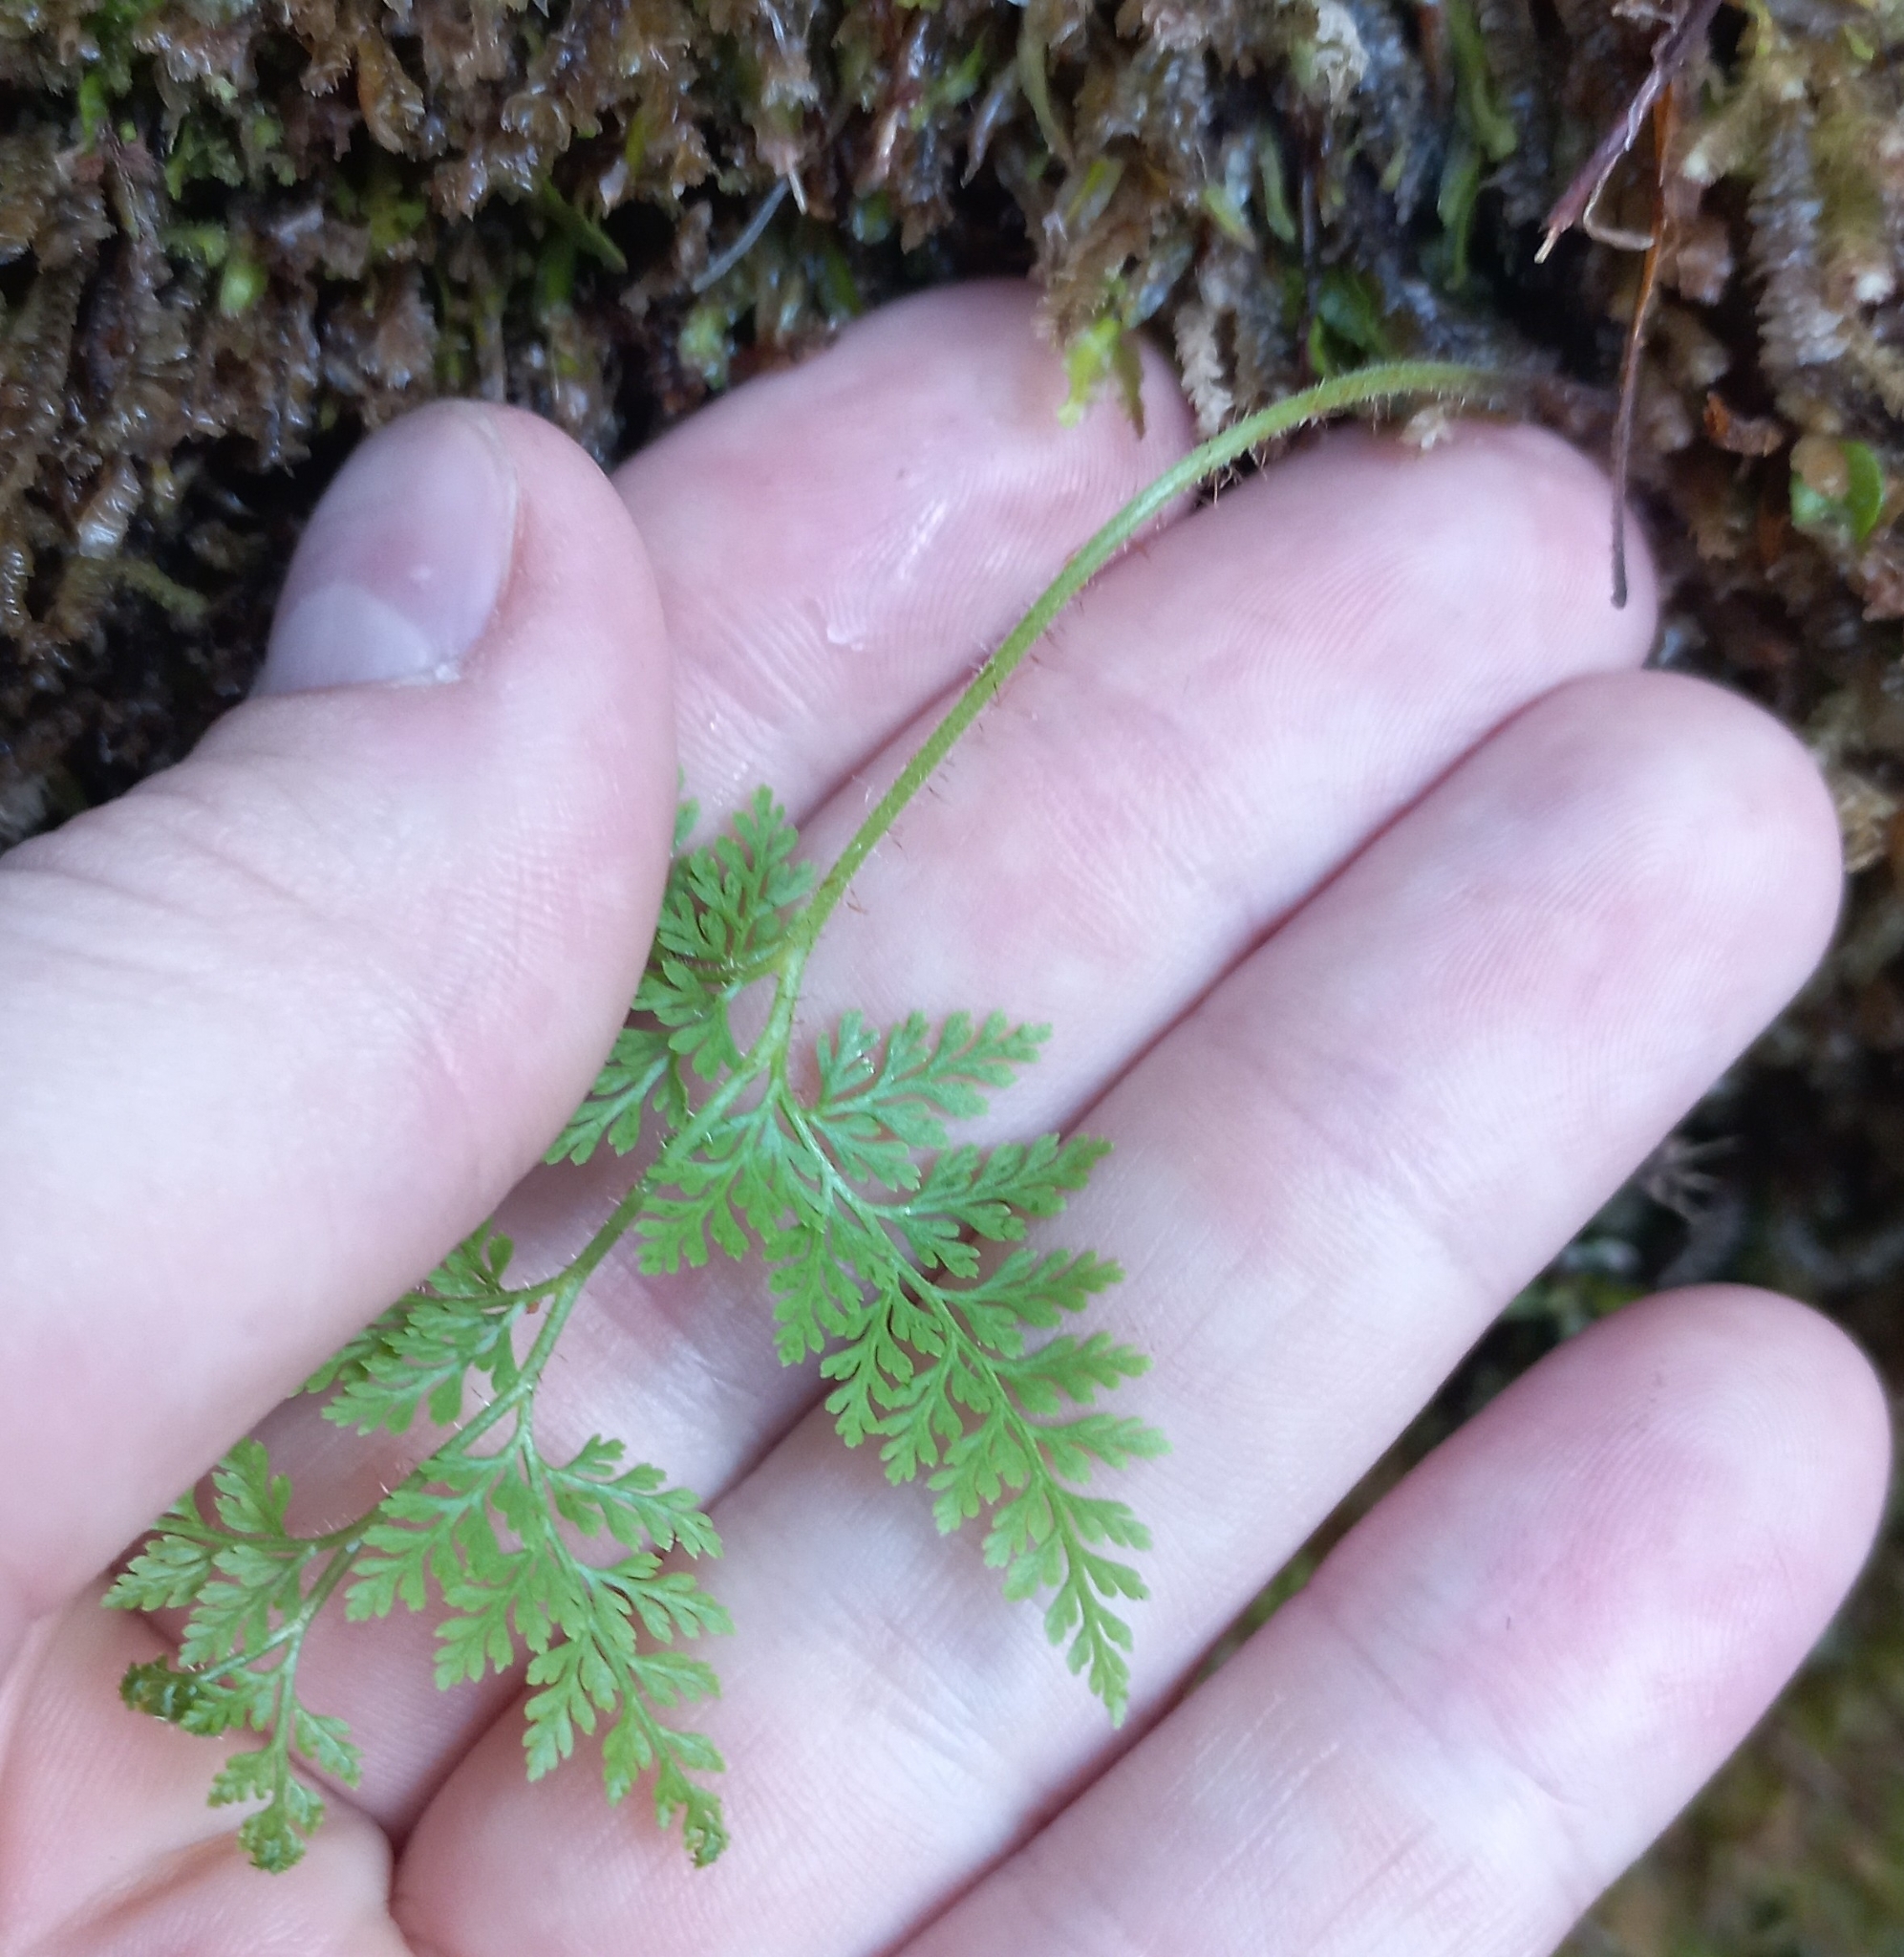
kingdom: Plantae
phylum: Tracheophyta
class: Polypodiopsida
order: Polypodiales
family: Dennstaedtiaceae
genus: Paesia
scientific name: Paesia scaberula
